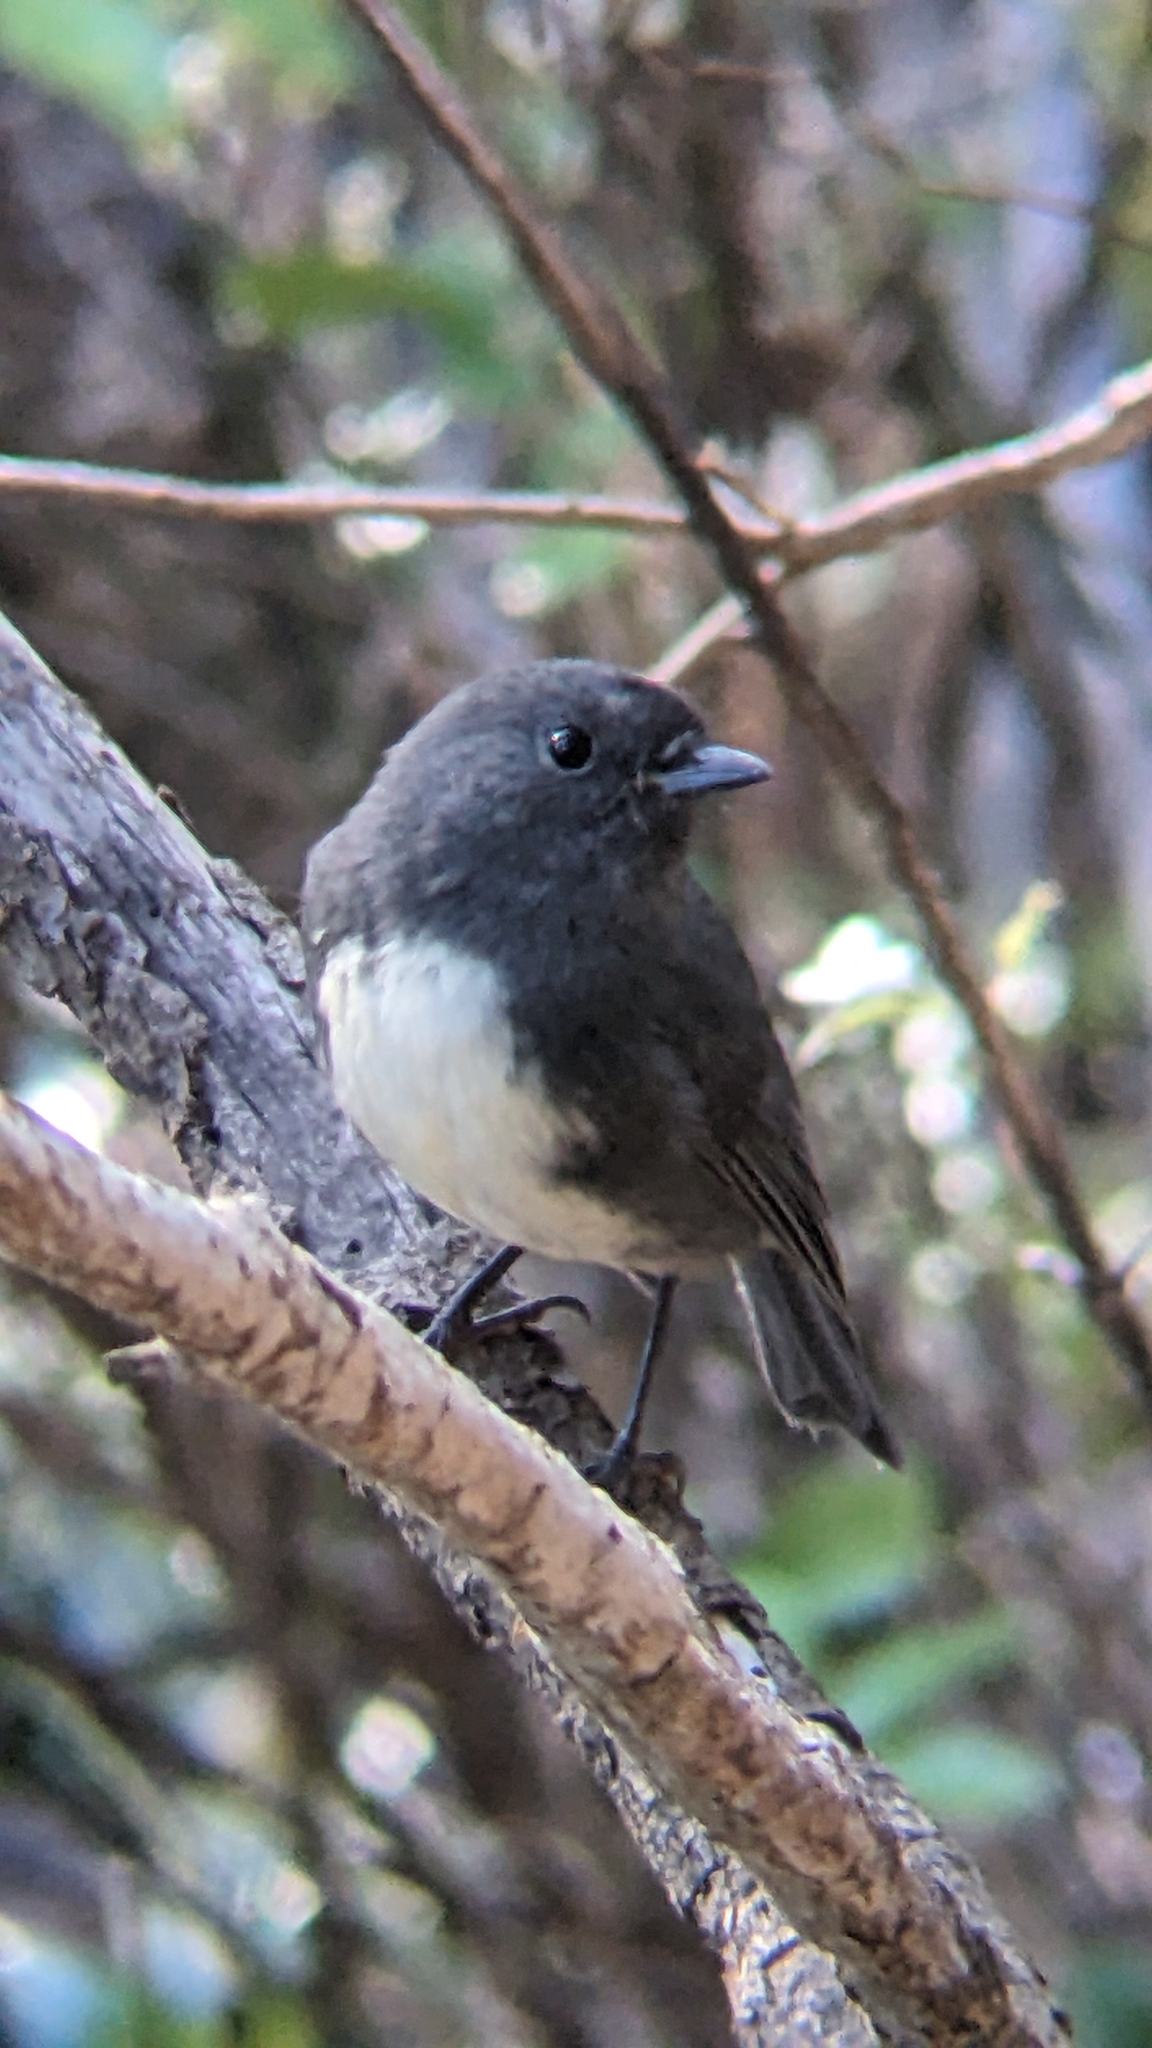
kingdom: Animalia
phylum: Chordata
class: Aves
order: Passeriformes
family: Petroicidae
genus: Petroica
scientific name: Petroica australis
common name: New zealand robin
